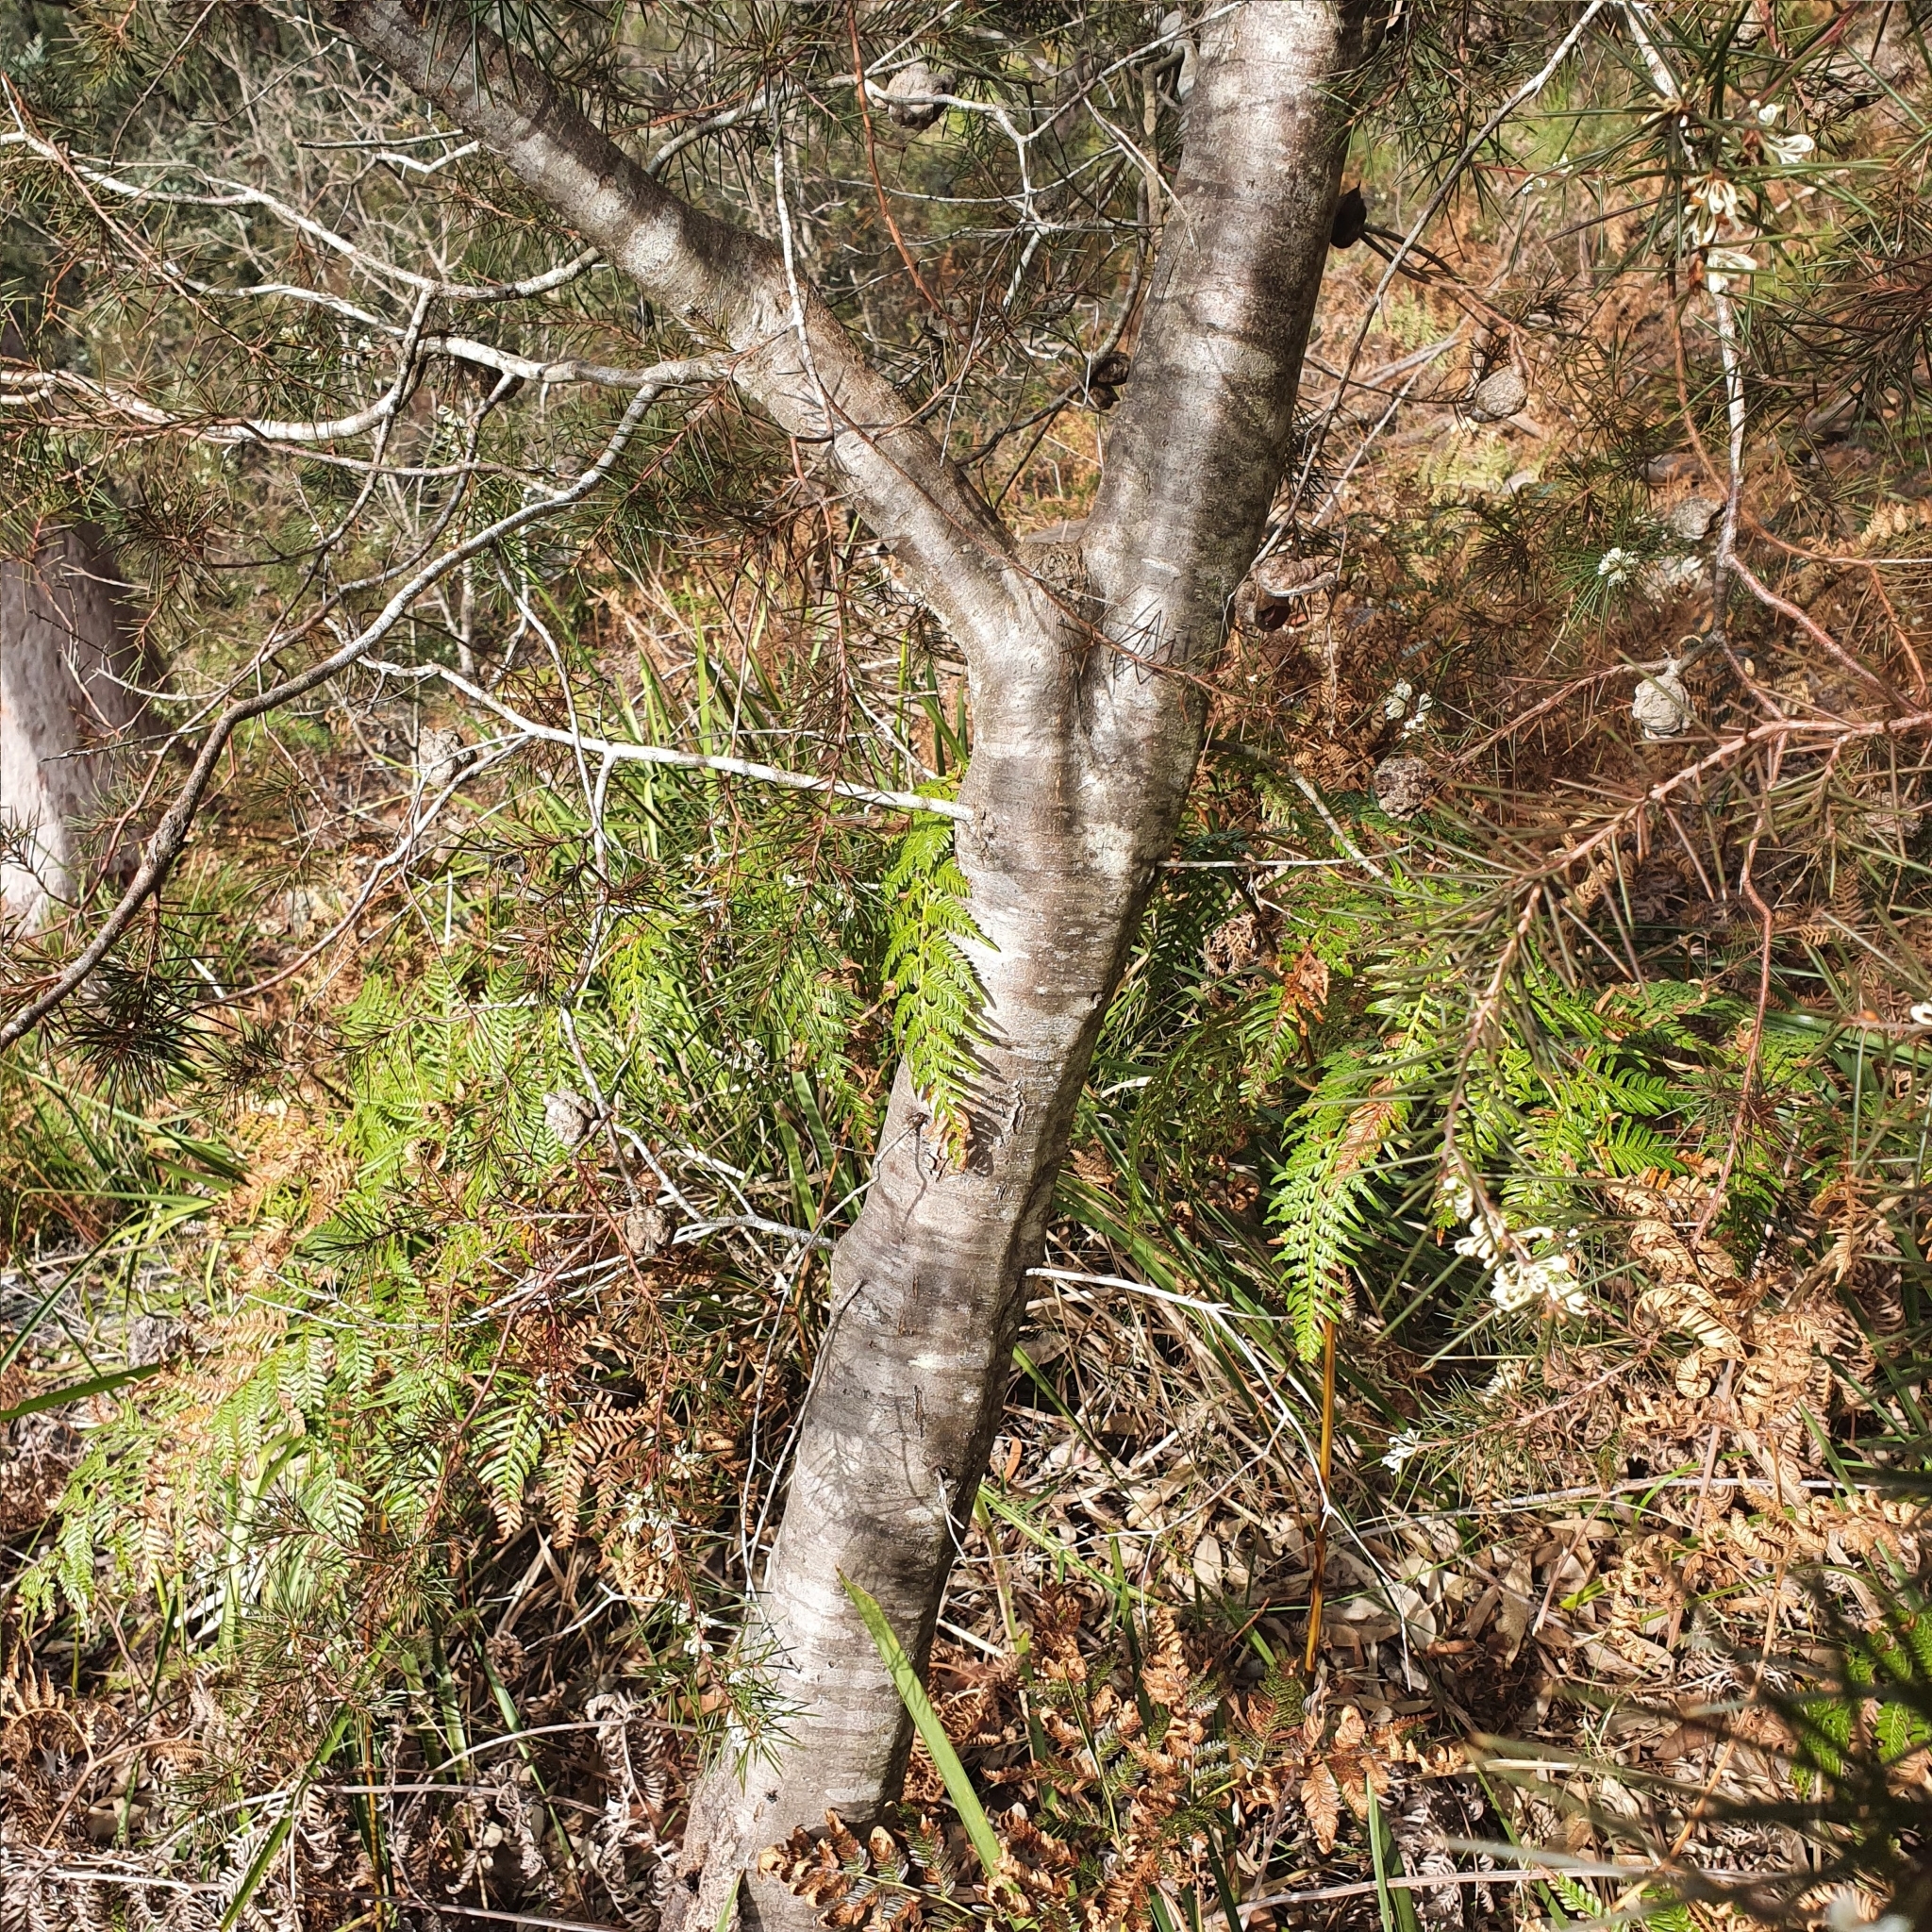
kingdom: Plantae
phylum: Tracheophyta
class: Magnoliopsida
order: Proteales
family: Proteaceae
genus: Hakea
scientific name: Hakea sericea
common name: Needle bush
